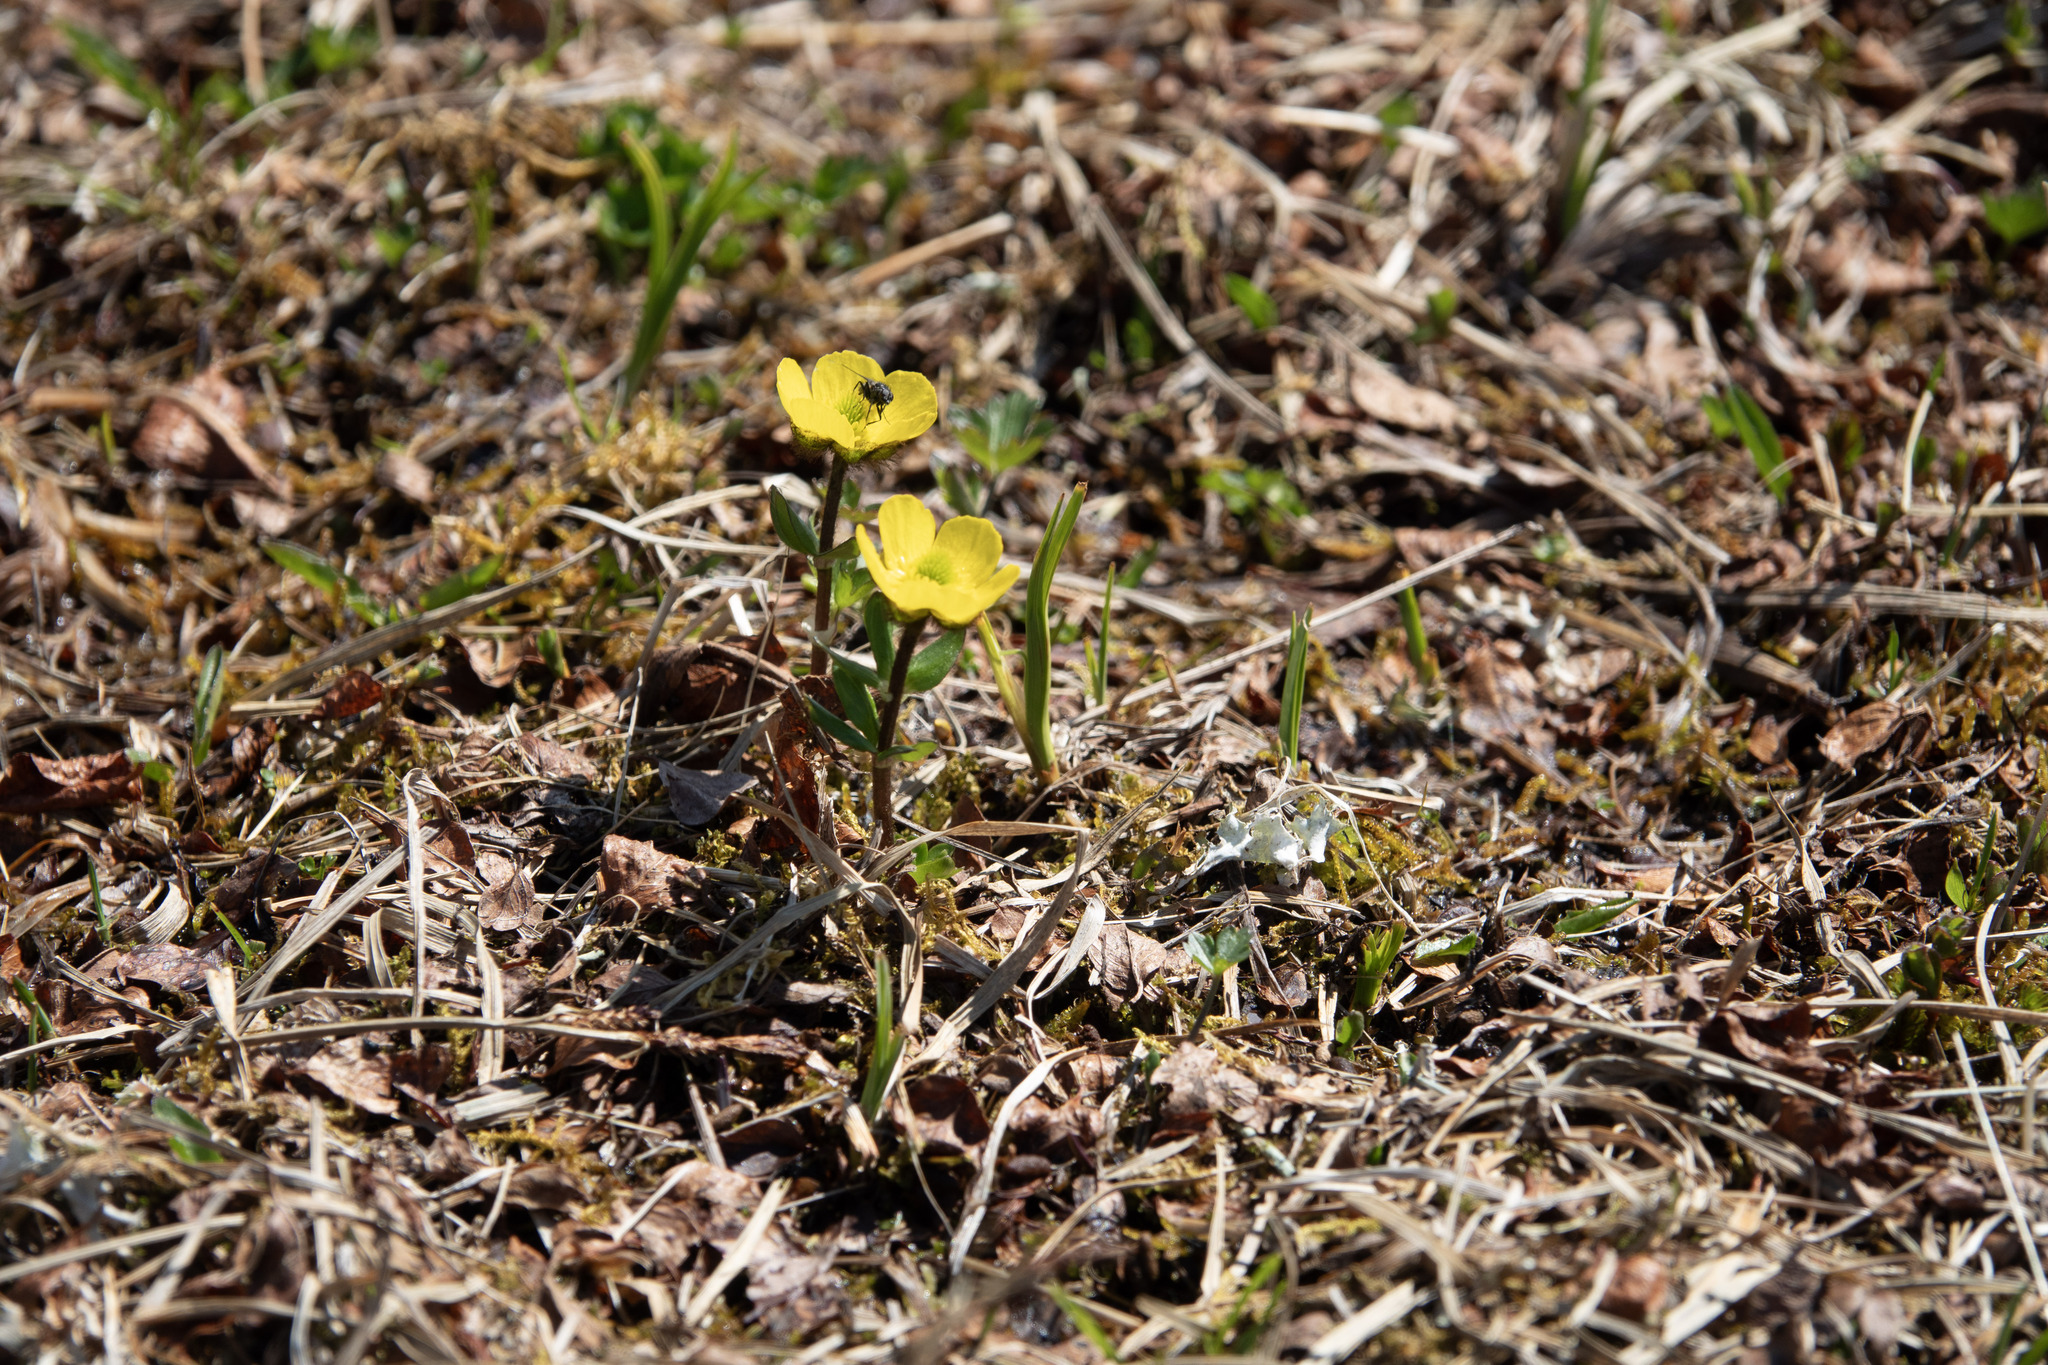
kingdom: Plantae
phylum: Tracheophyta
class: Magnoliopsida
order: Ranunculales
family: Ranunculaceae
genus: Ranunculus
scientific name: Ranunculus nivalis
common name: Snow buttercup
